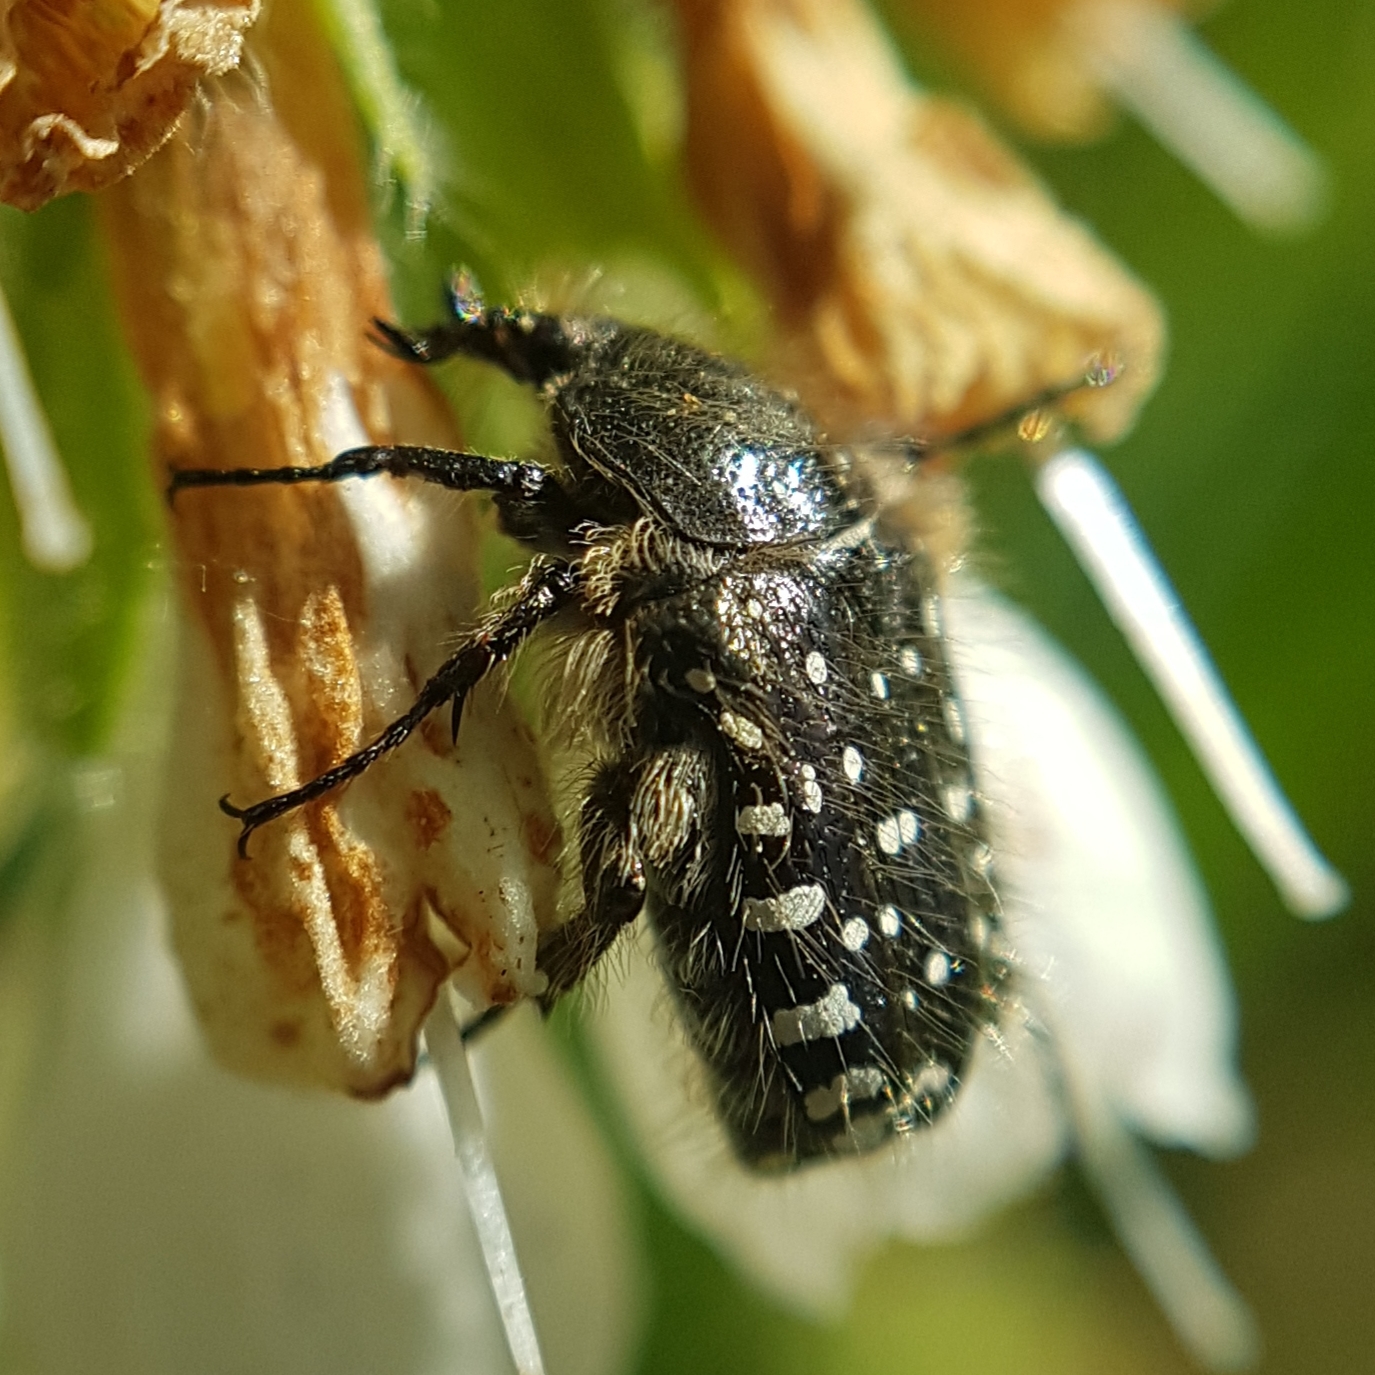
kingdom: Animalia
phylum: Arthropoda
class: Insecta
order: Coleoptera
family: Scarabaeidae
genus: Oxythyrea
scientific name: Oxythyrea funesta
